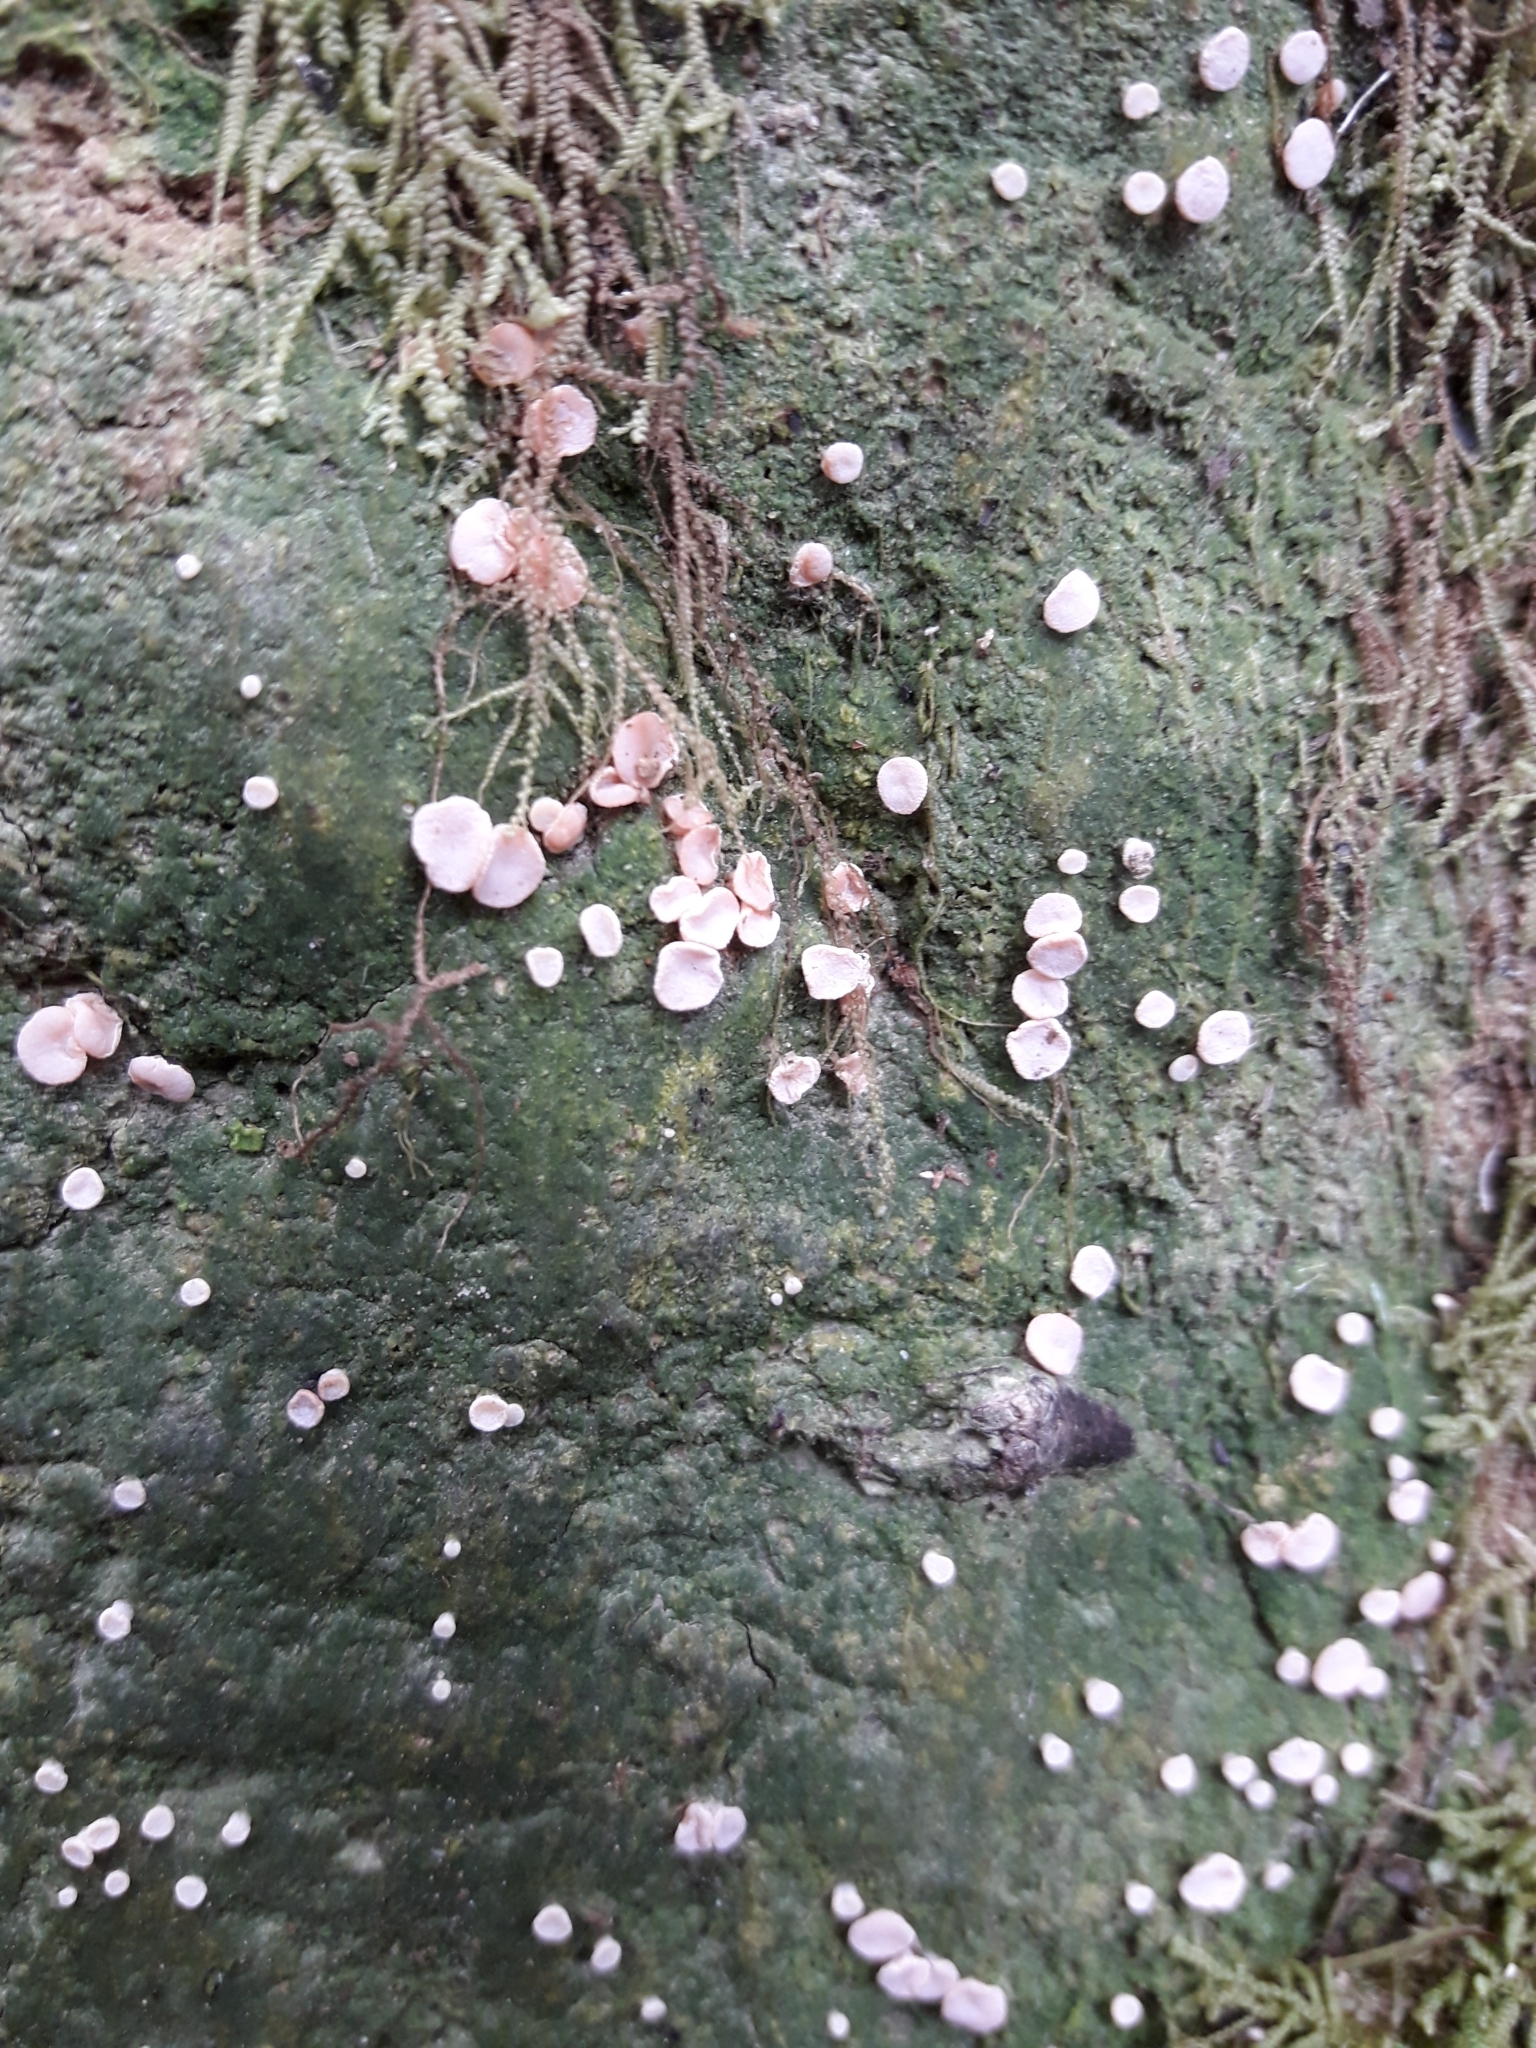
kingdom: Fungi
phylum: Ascomycota
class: Lecanoromycetes
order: Pertusariales
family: Icmadophilaceae
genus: Dibaeis
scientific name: Dibaeis absoluta
